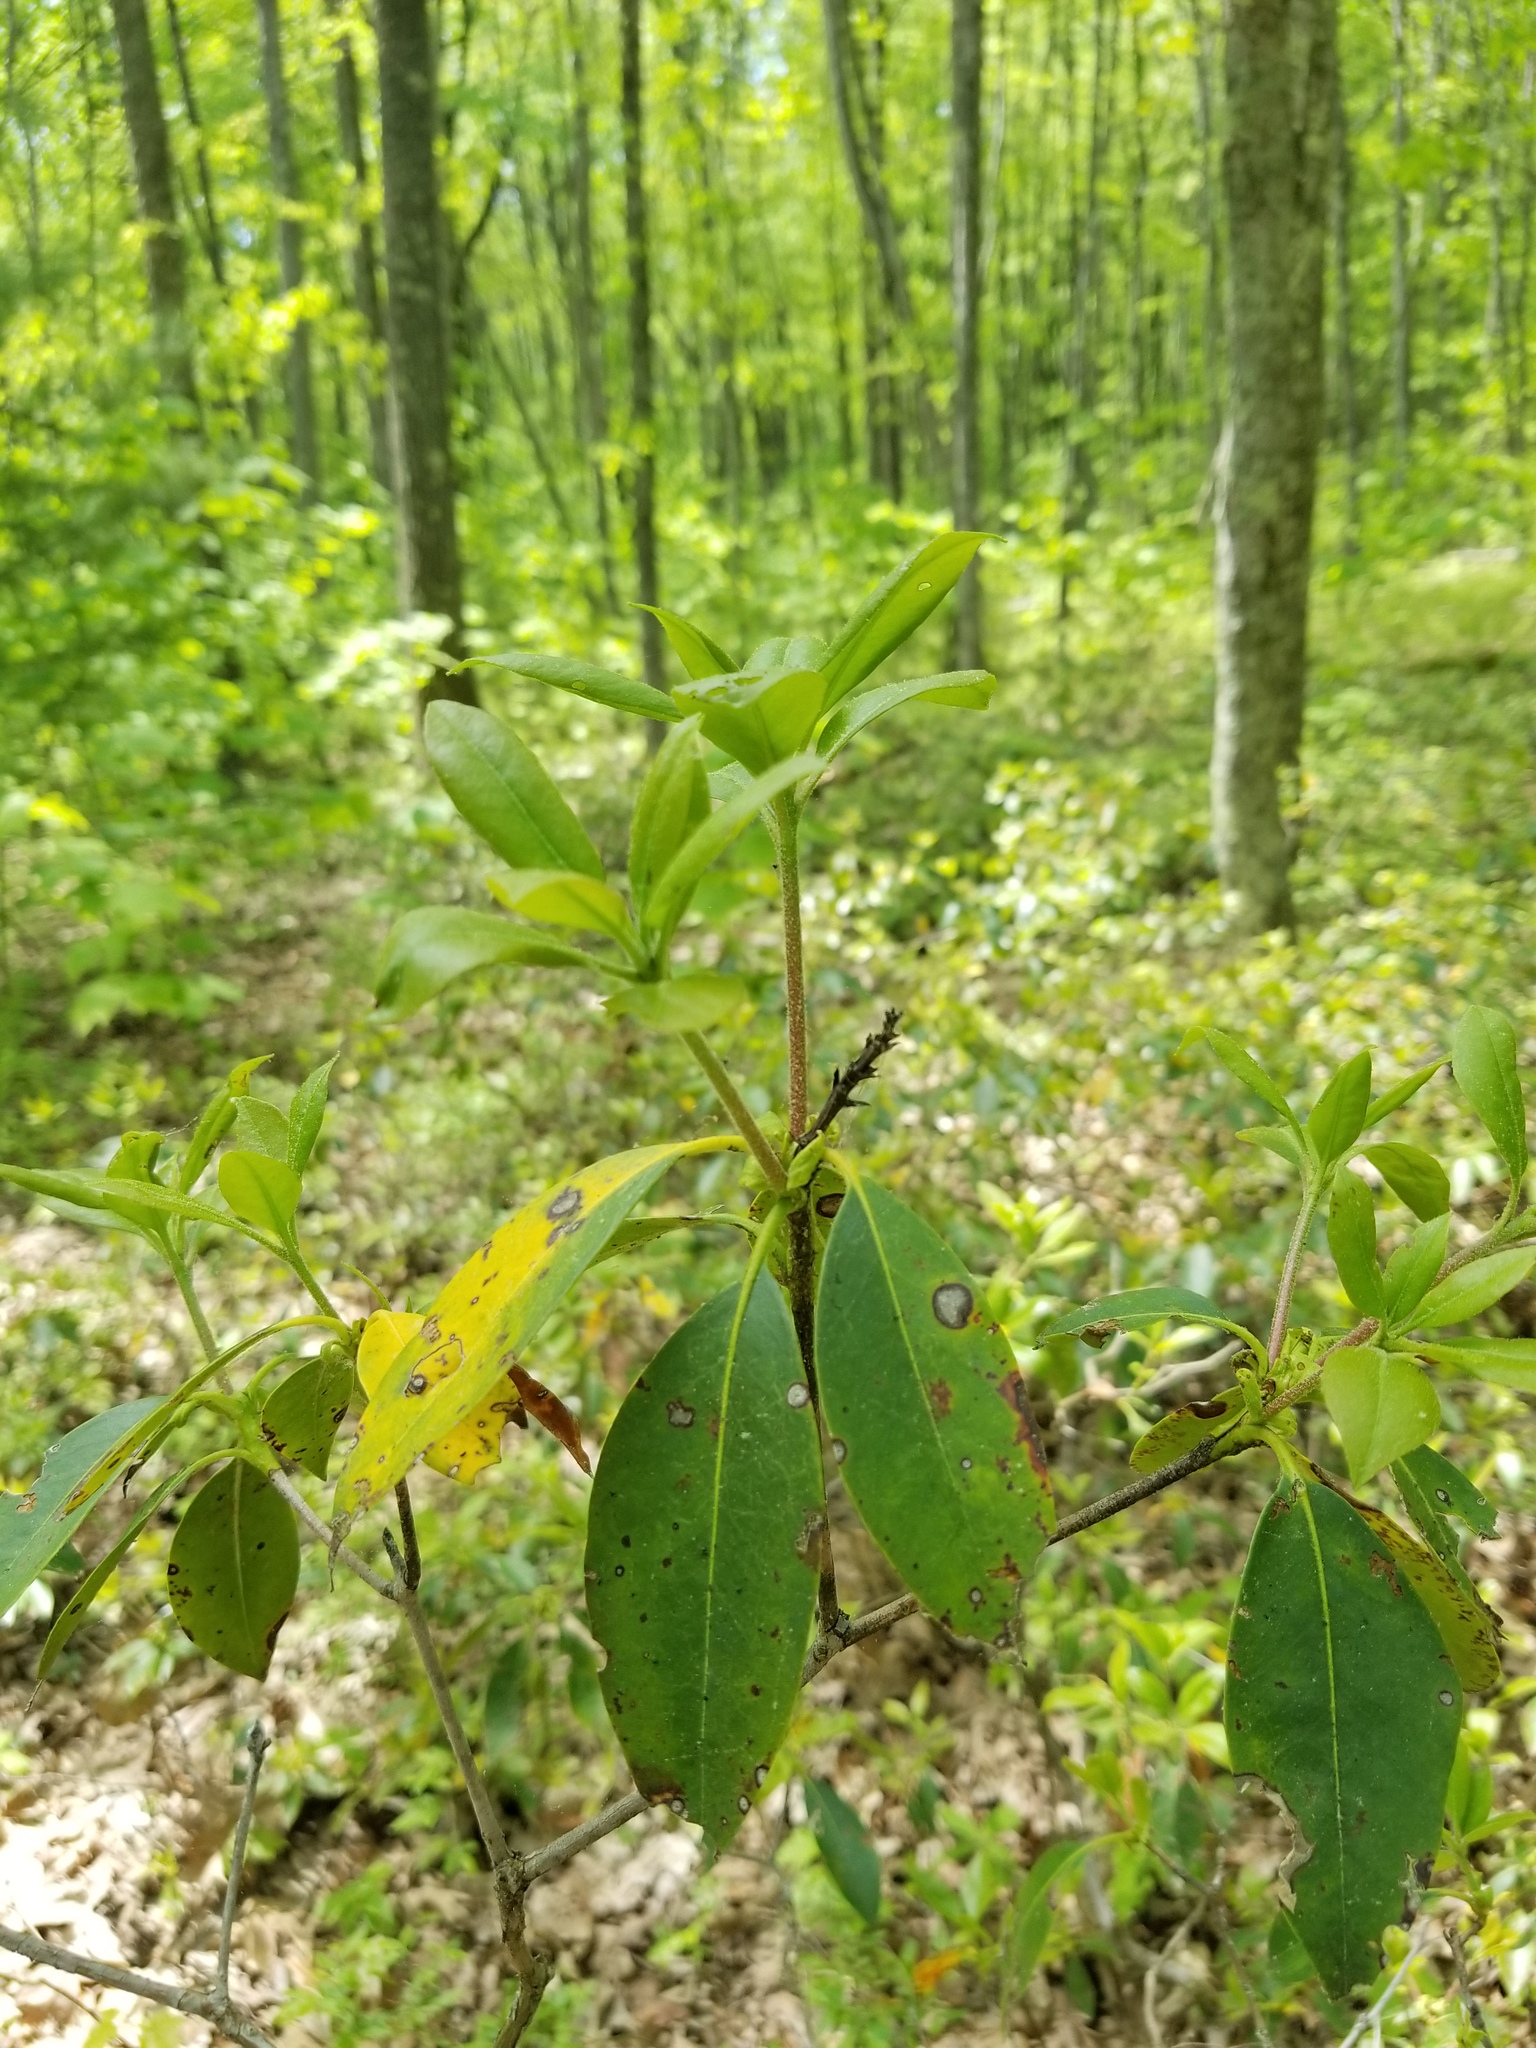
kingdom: Plantae
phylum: Tracheophyta
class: Magnoliopsida
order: Ericales
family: Ericaceae
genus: Kalmia
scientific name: Kalmia latifolia
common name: Mountain-laurel
